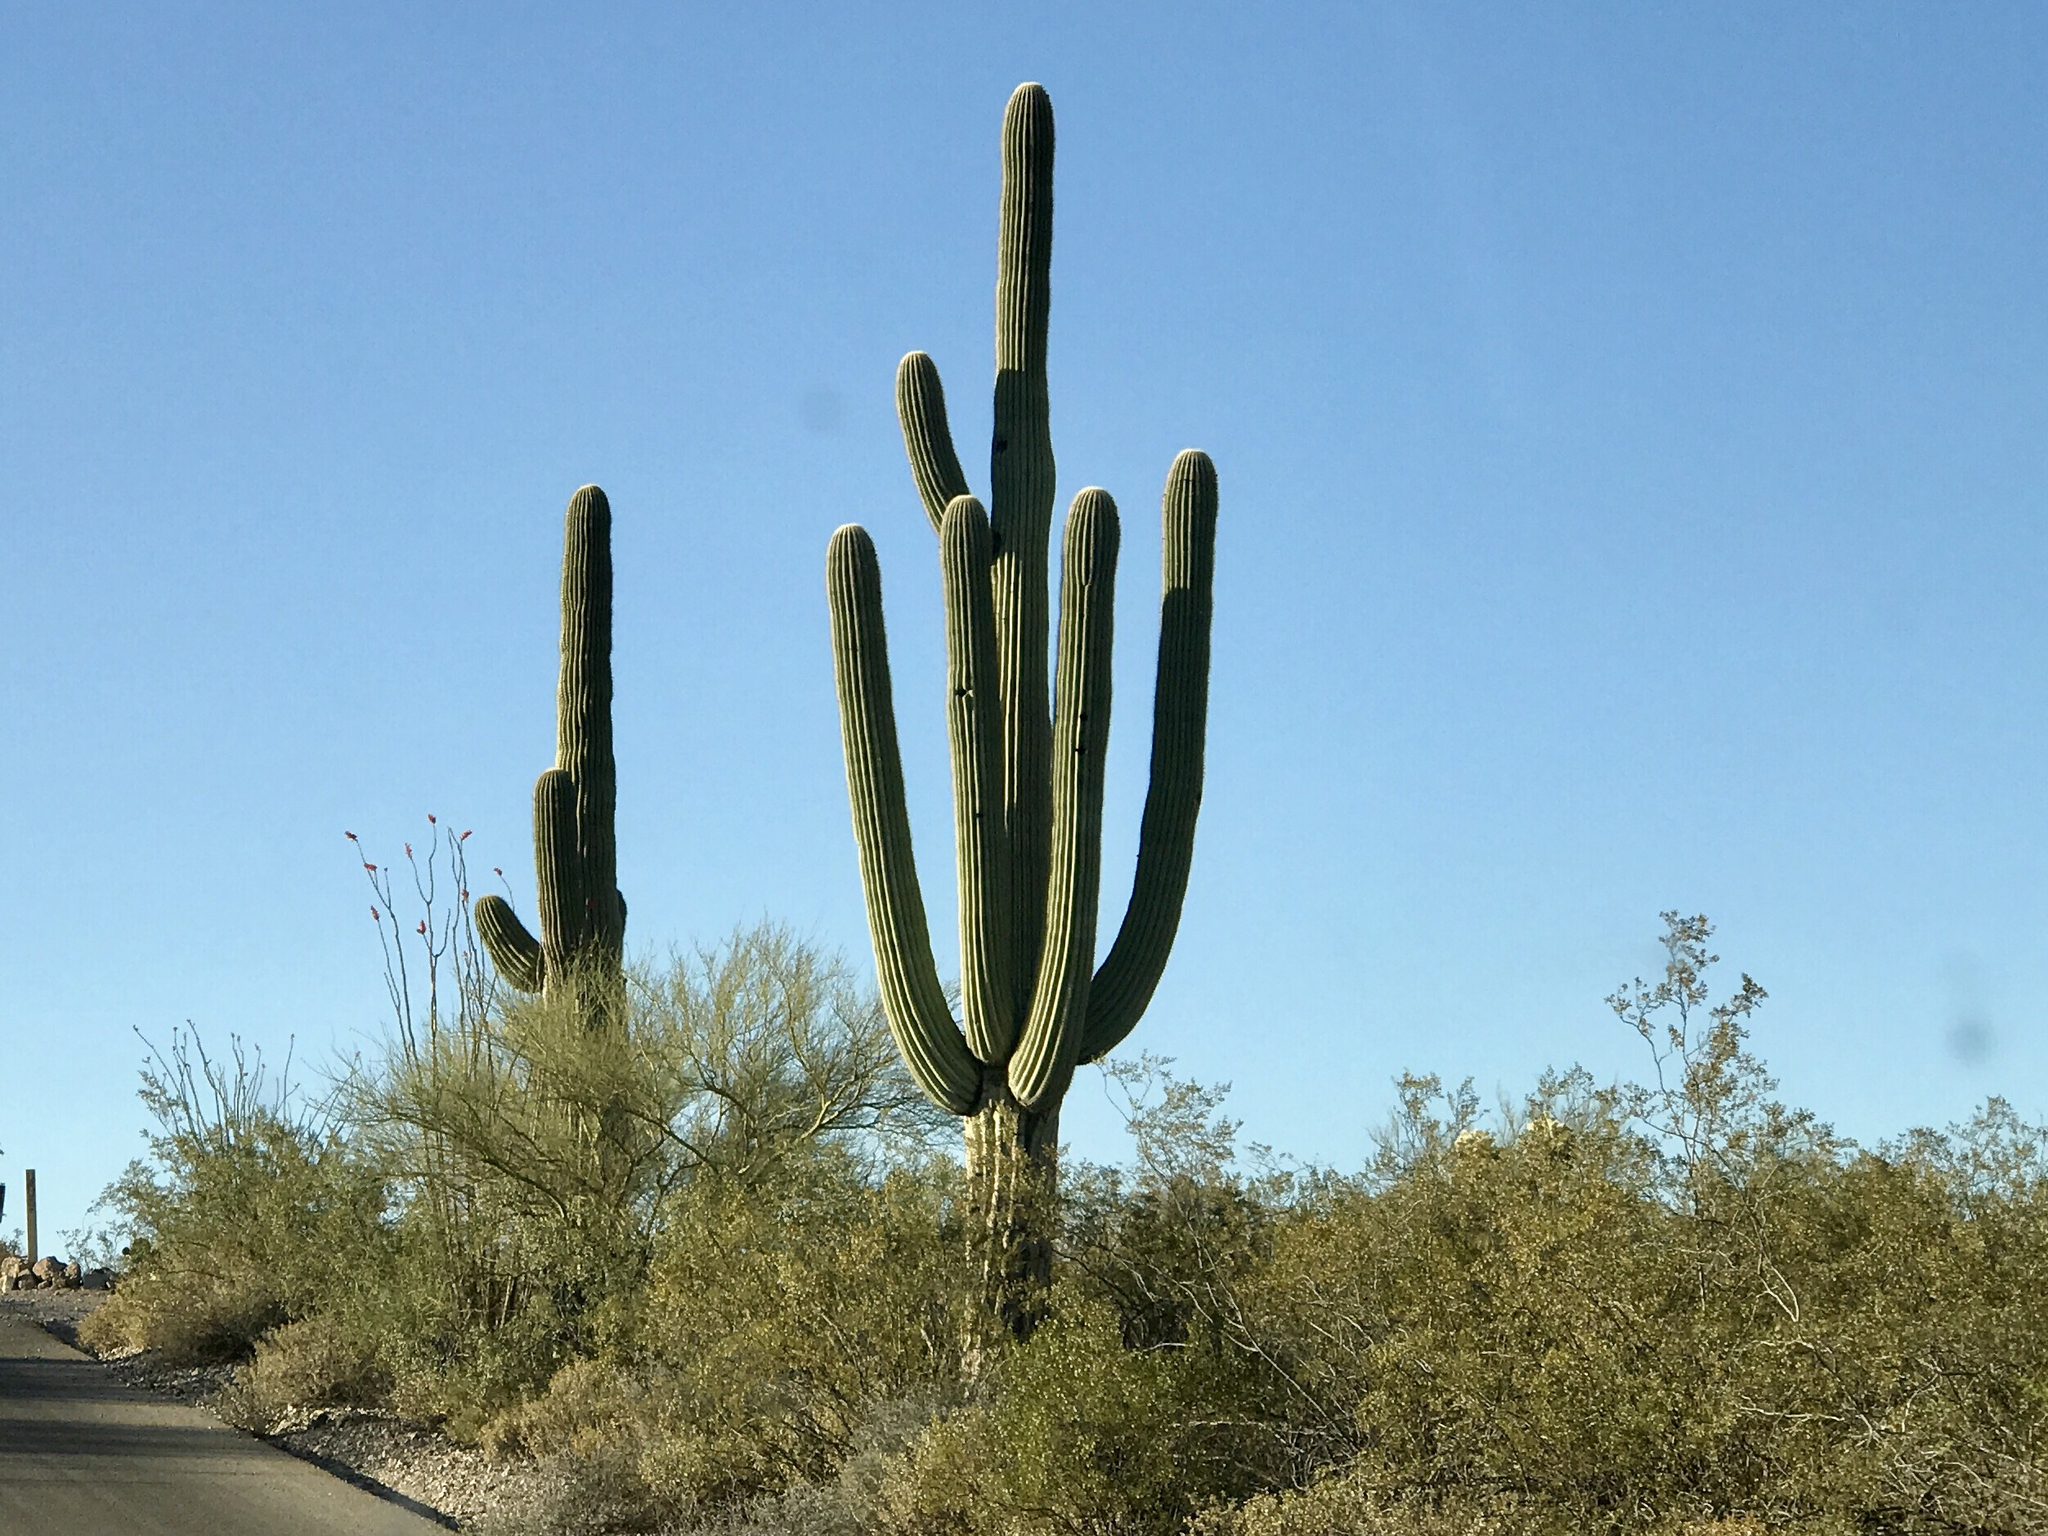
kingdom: Plantae
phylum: Tracheophyta
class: Magnoliopsida
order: Caryophyllales
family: Cactaceae
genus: Carnegiea
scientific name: Carnegiea gigantea
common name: Saguaro
